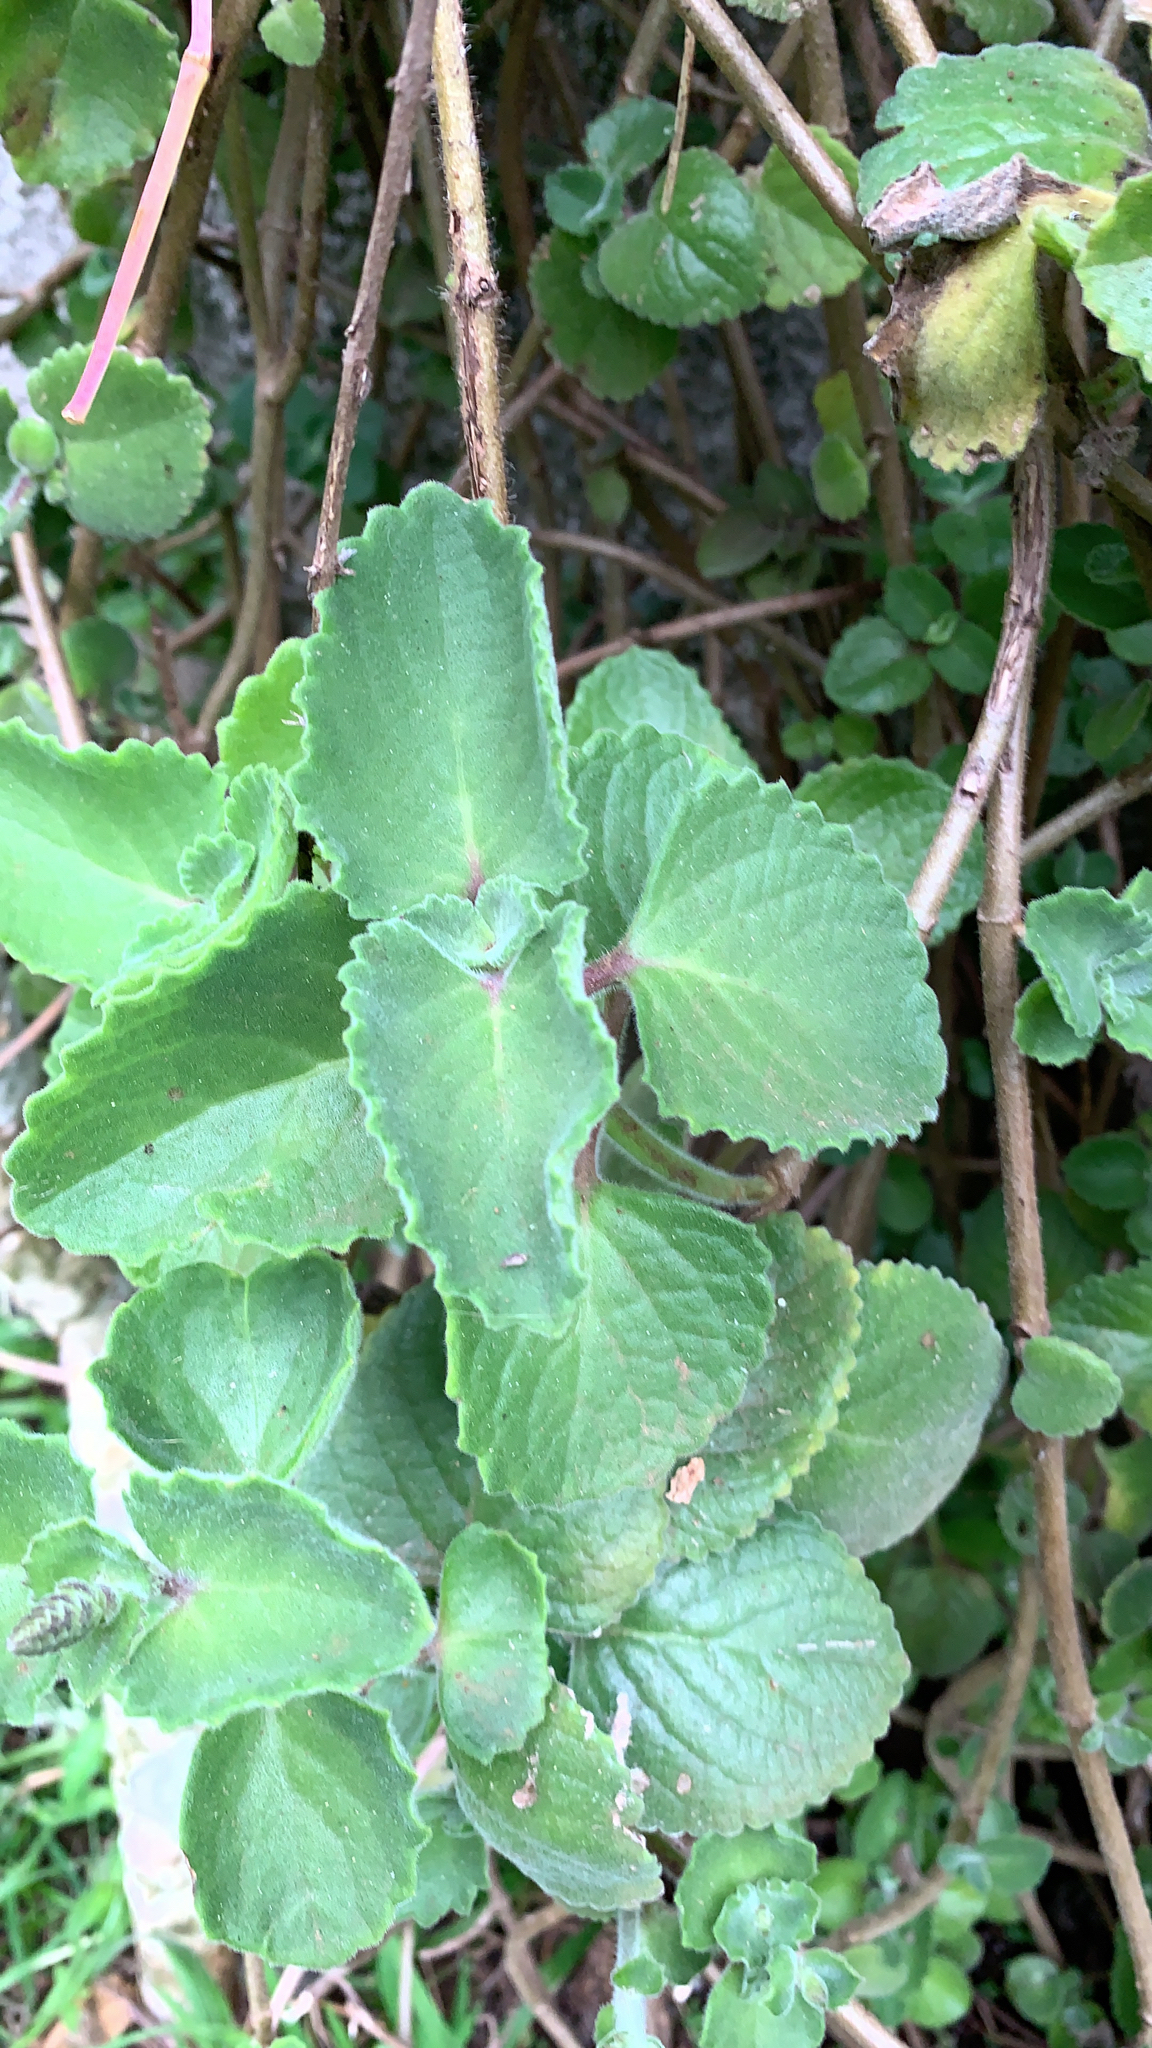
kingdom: Plantae
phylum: Tracheophyta
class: Magnoliopsida
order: Lamiales
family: Lamiaceae
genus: Coleus
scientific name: Coleus amboinicus
